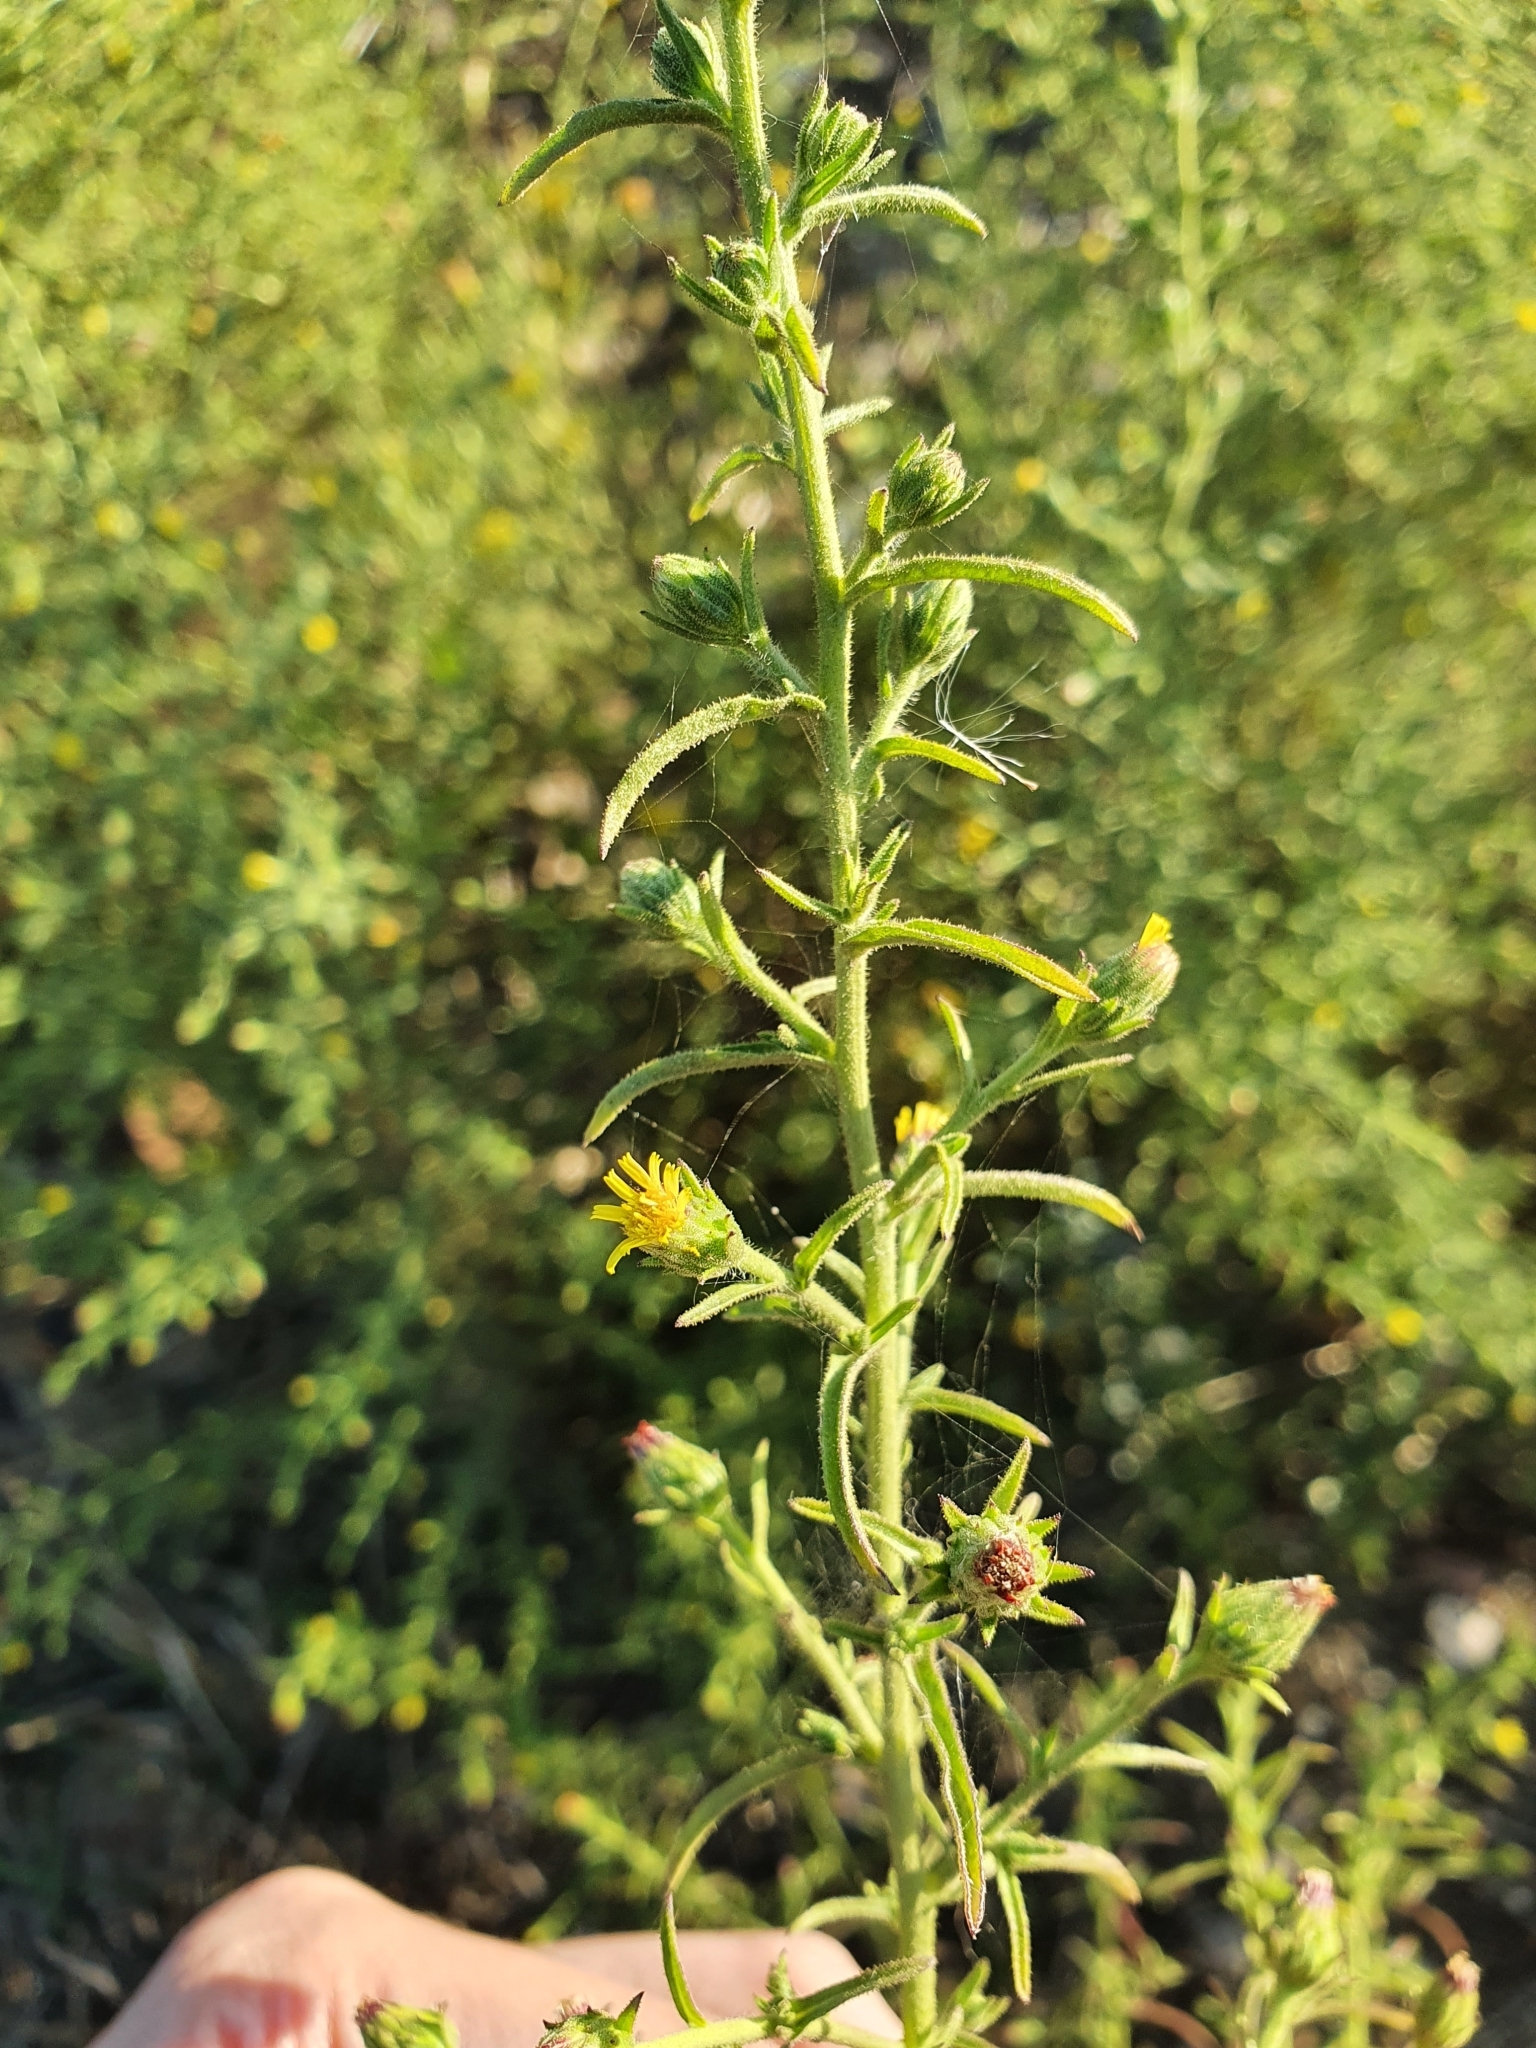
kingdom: Plantae
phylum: Tracheophyta
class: Magnoliopsida
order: Asterales
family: Asteraceae
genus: Dittrichia
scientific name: Dittrichia graveolens
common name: Stinking fleabane
